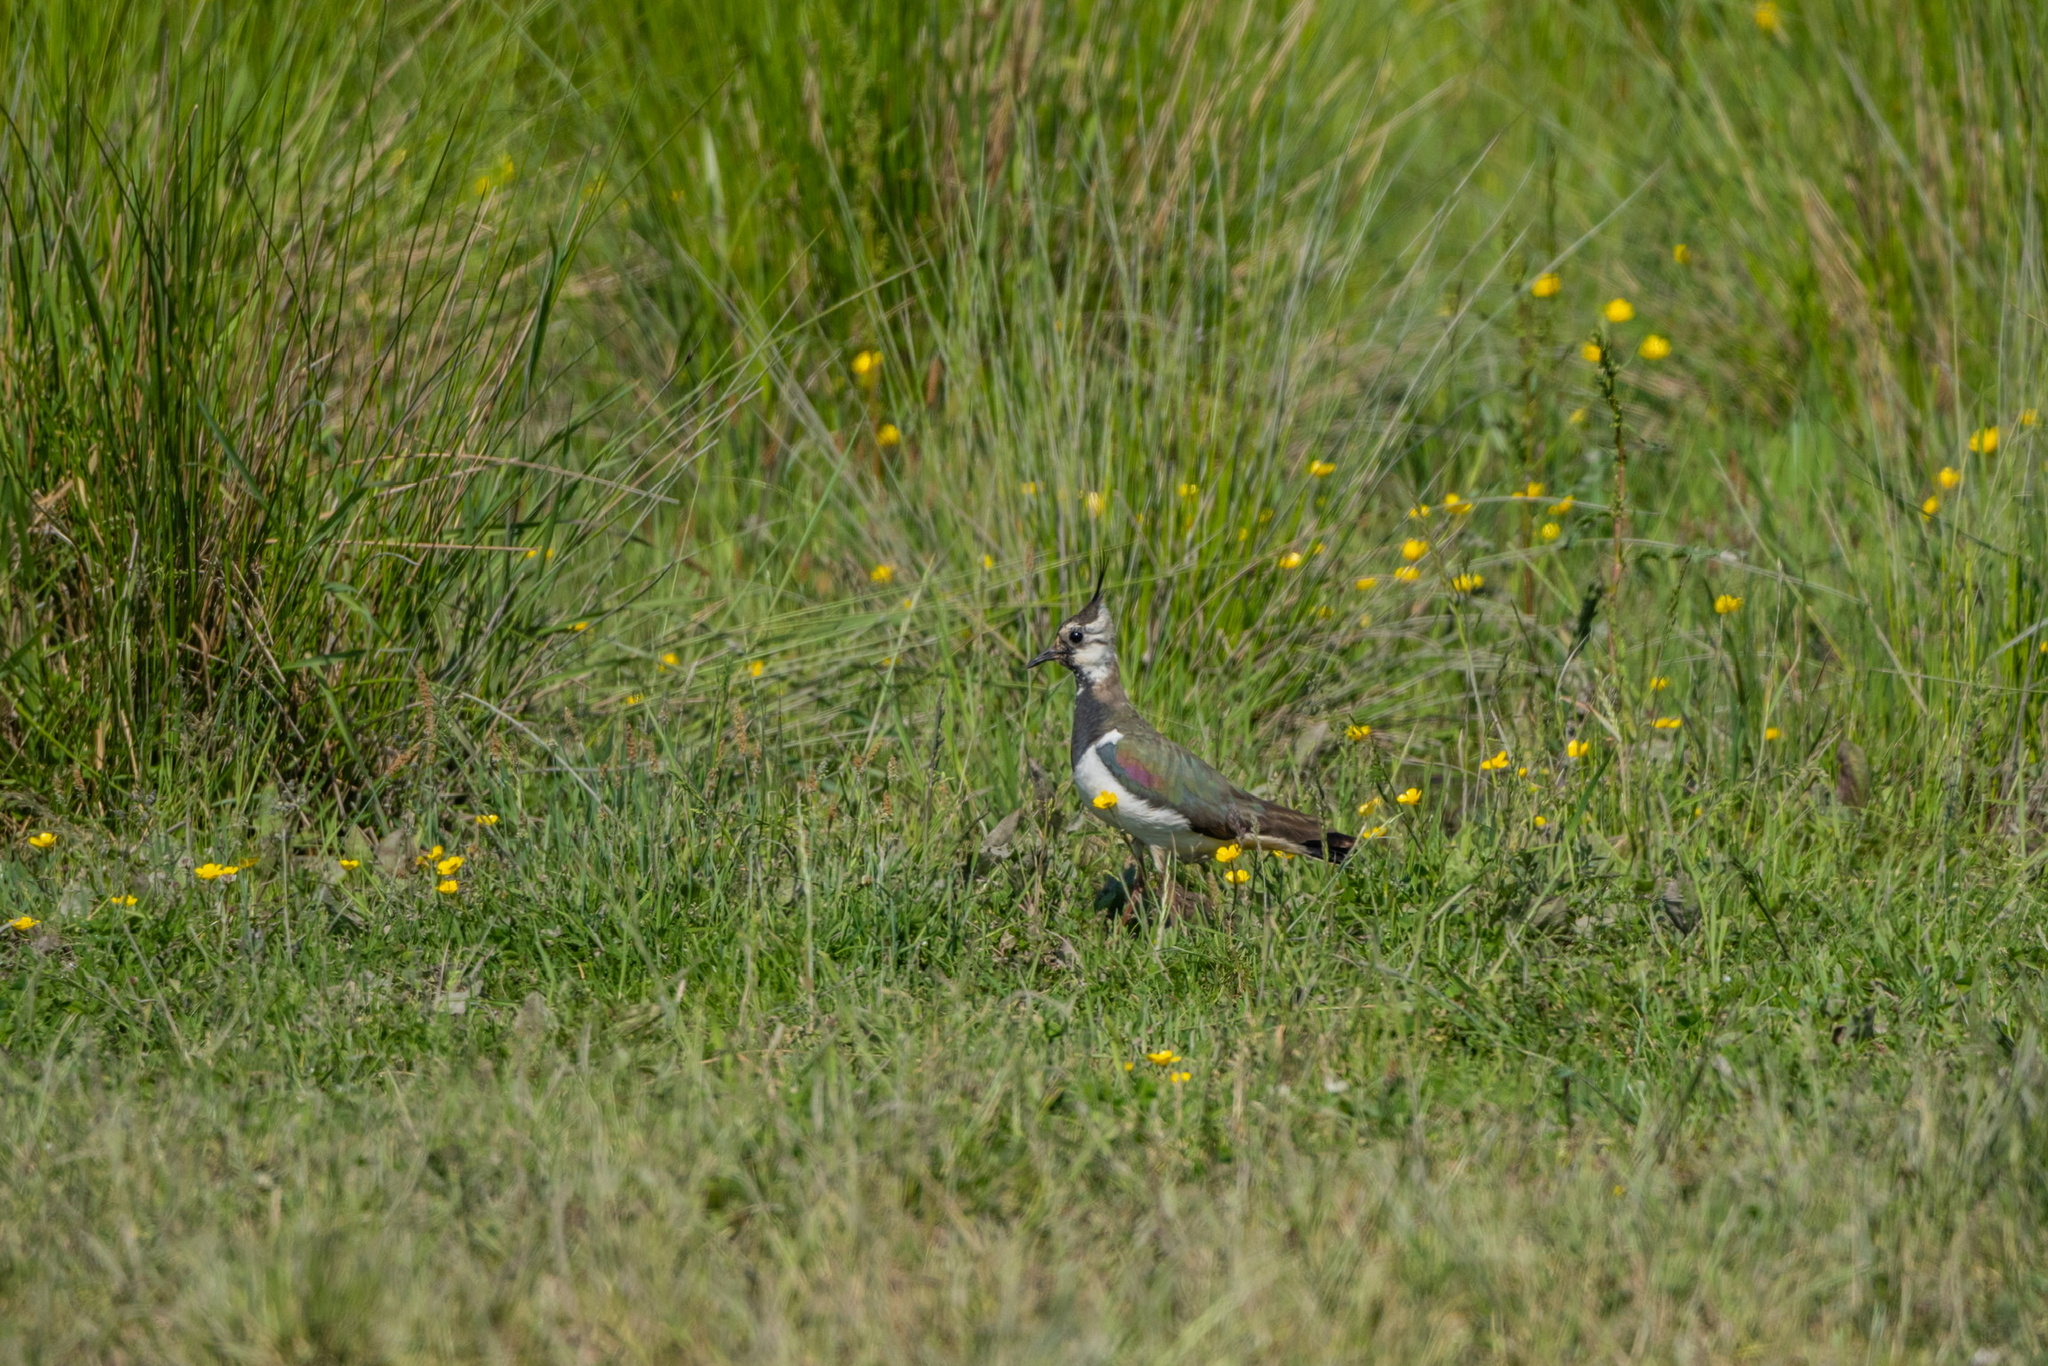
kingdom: Animalia
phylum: Chordata
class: Aves
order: Charadriiformes
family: Charadriidae
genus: Vanellus
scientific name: Vanellus vanellus
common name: Northern lapwing
